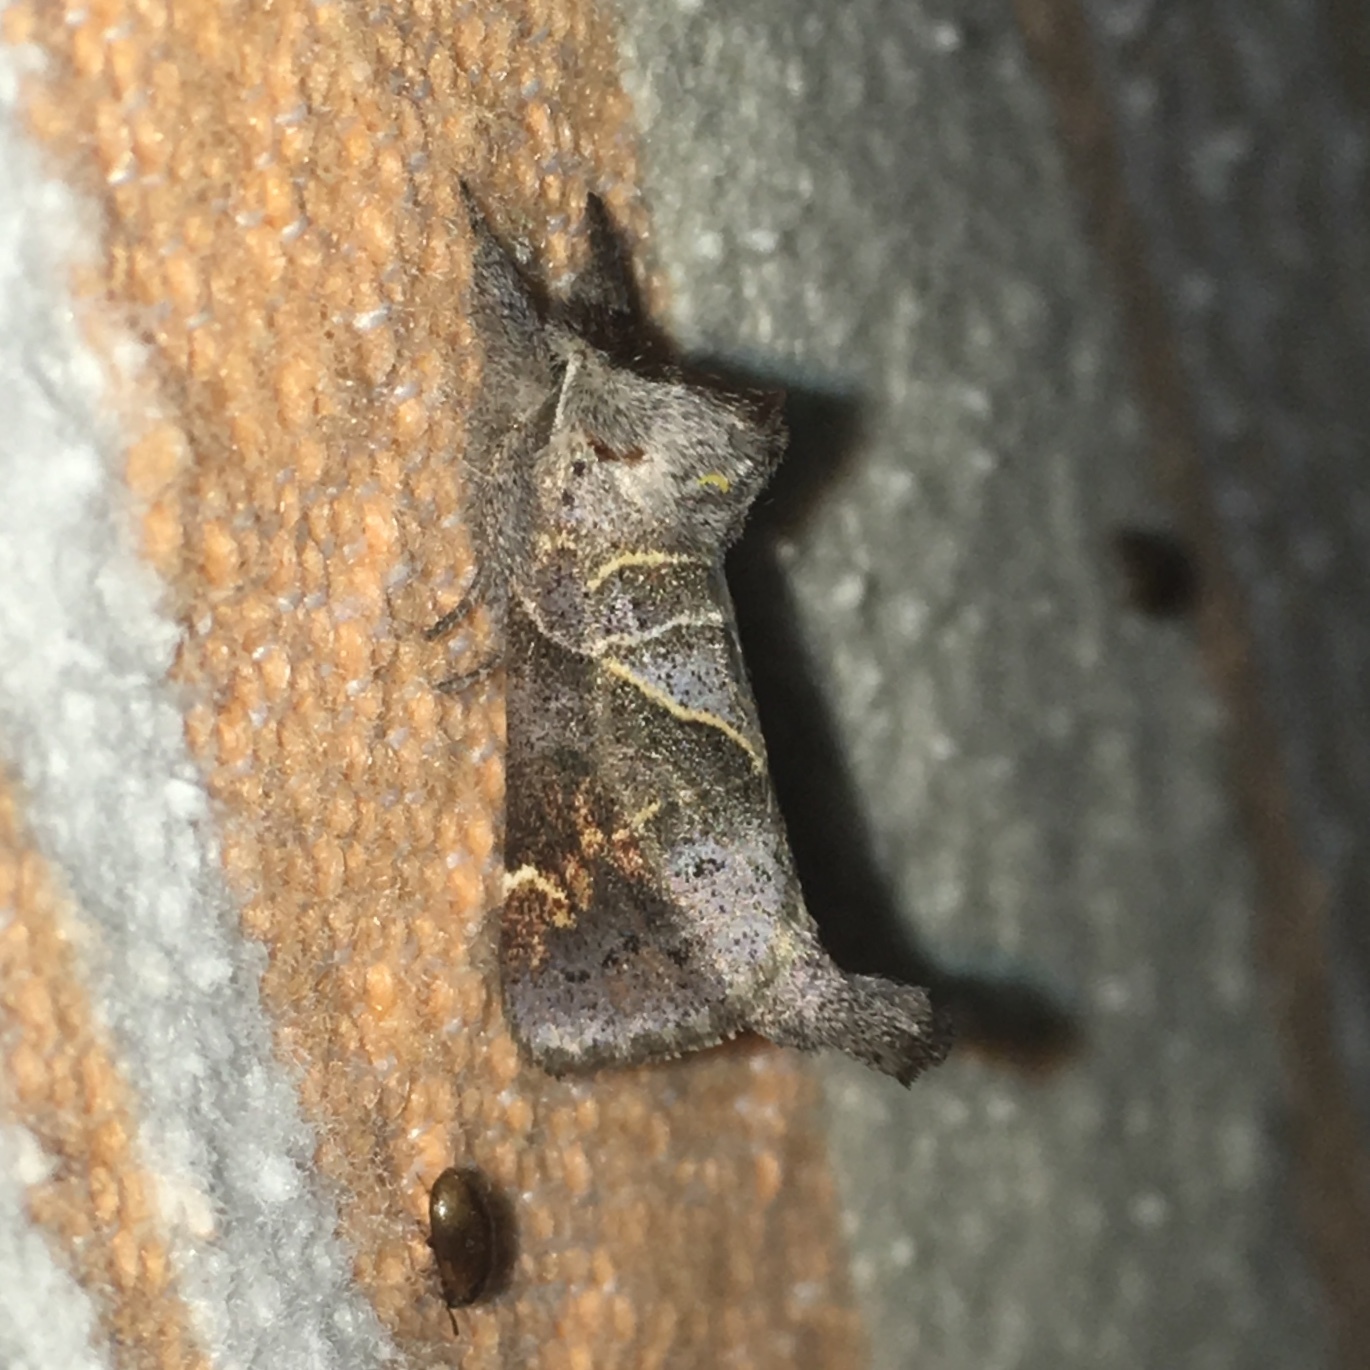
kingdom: Animalia
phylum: Arthropoda
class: Insecta
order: Lepidoptera
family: Notodontidae
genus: Clostera
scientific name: Clostera apicalis
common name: Apical prominent
